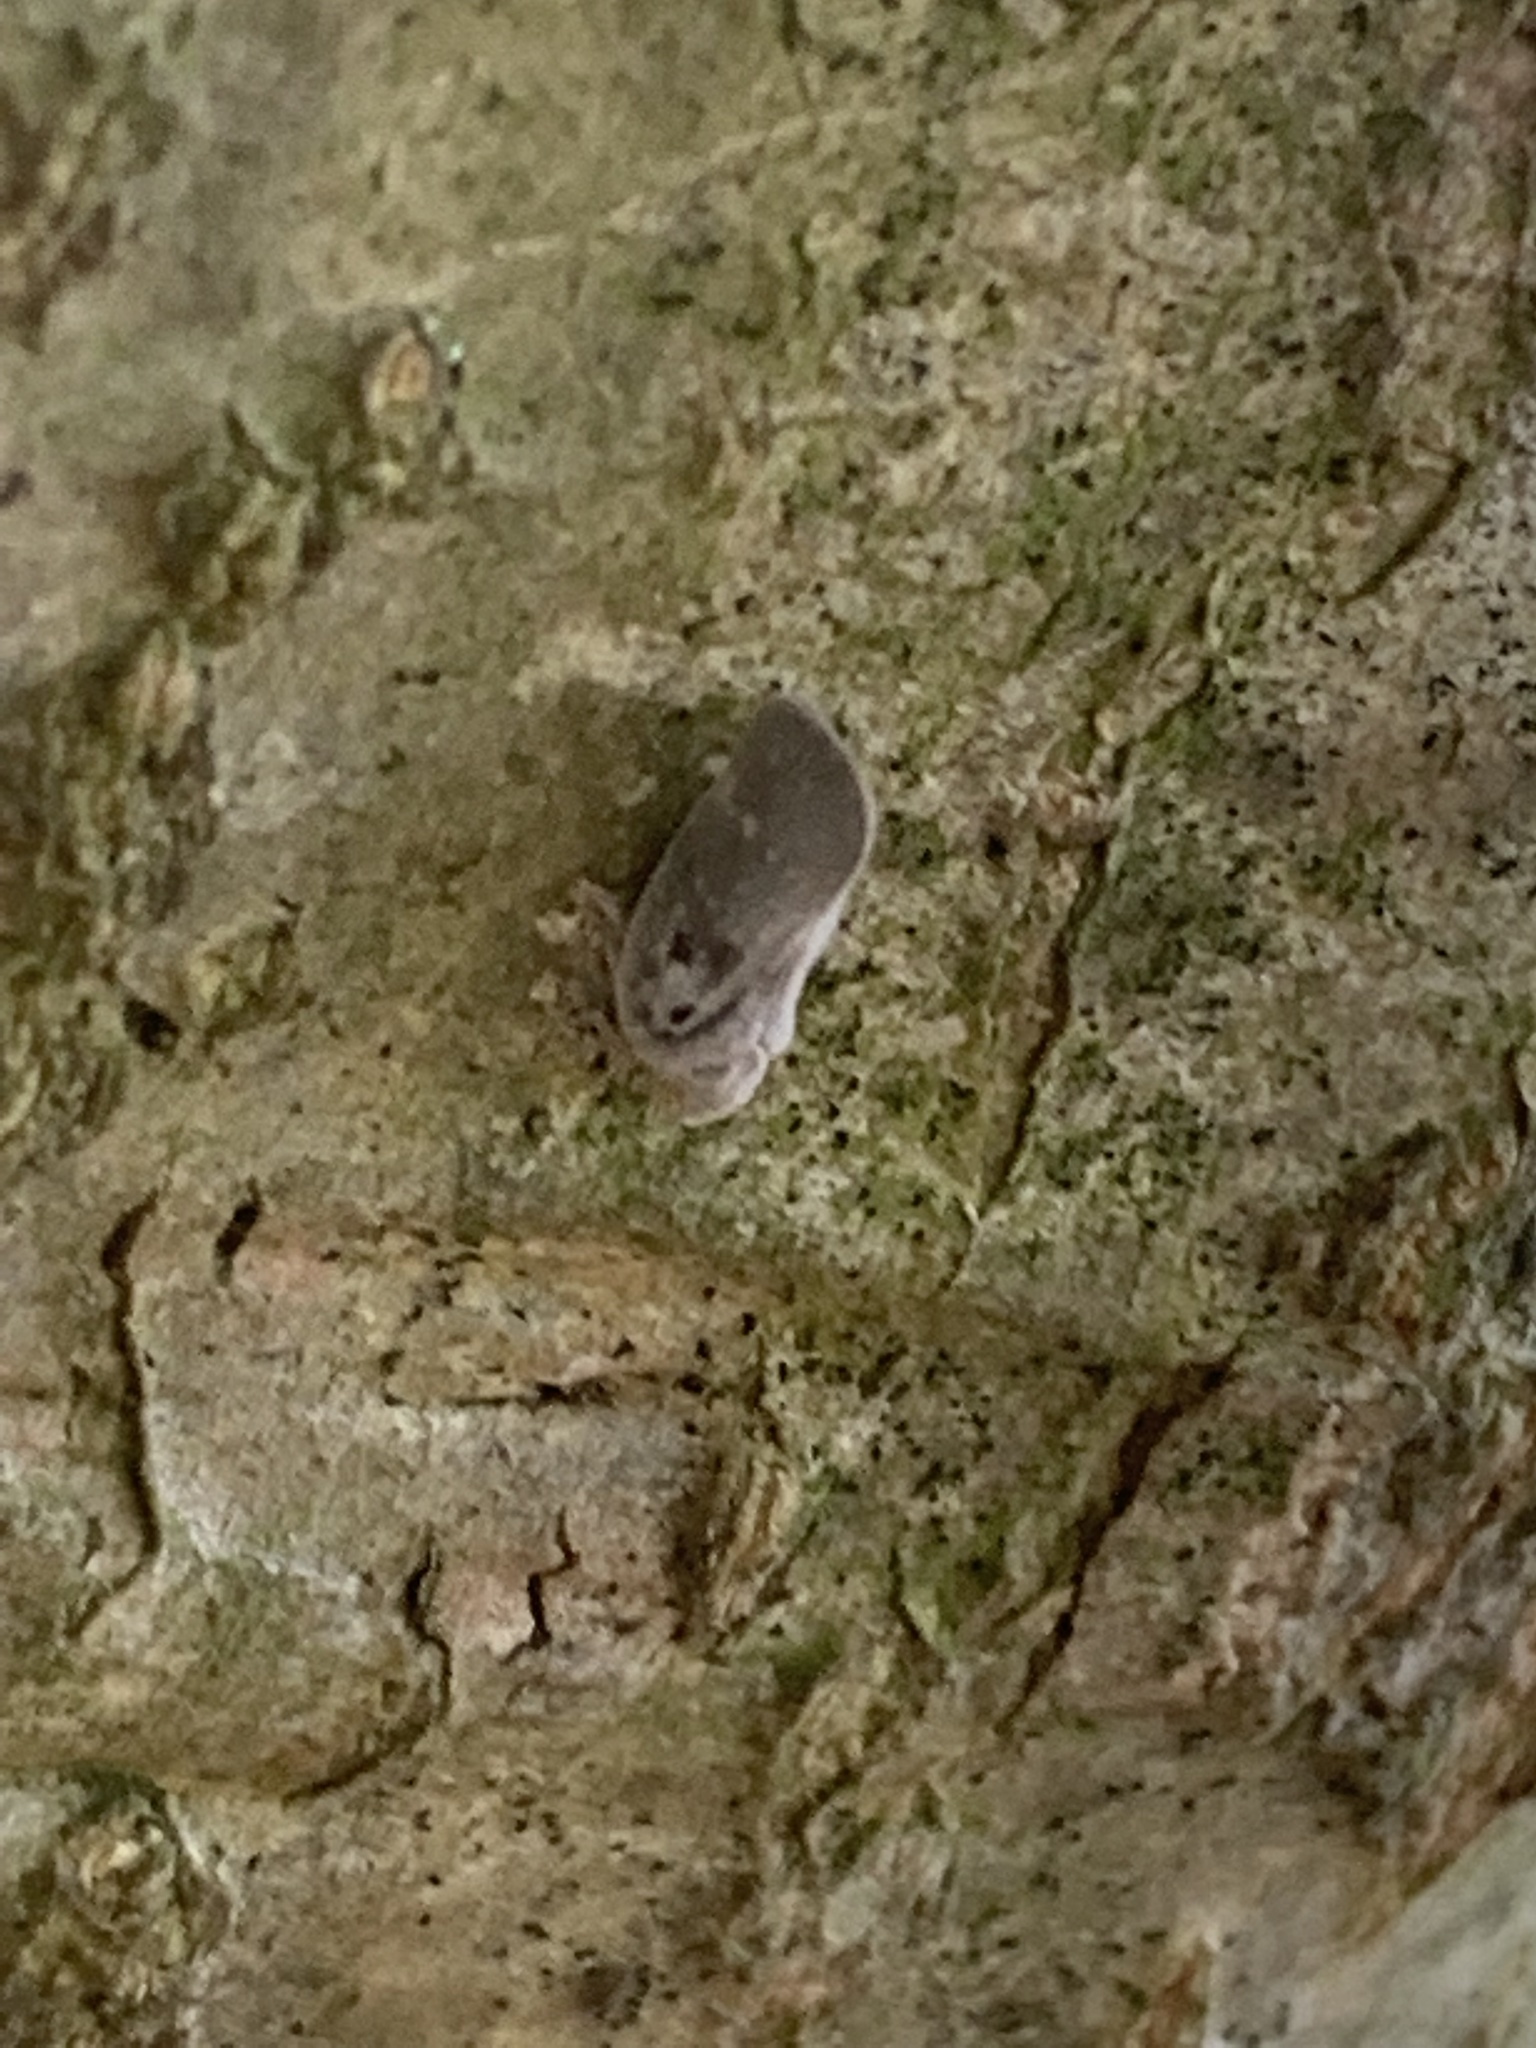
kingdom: Animalia
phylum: Arthropoda
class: Insecta
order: Hemiptera
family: Flatidae
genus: Metcalfa
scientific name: Metcalfa pruinosa
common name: Citrus flatid planthopper
